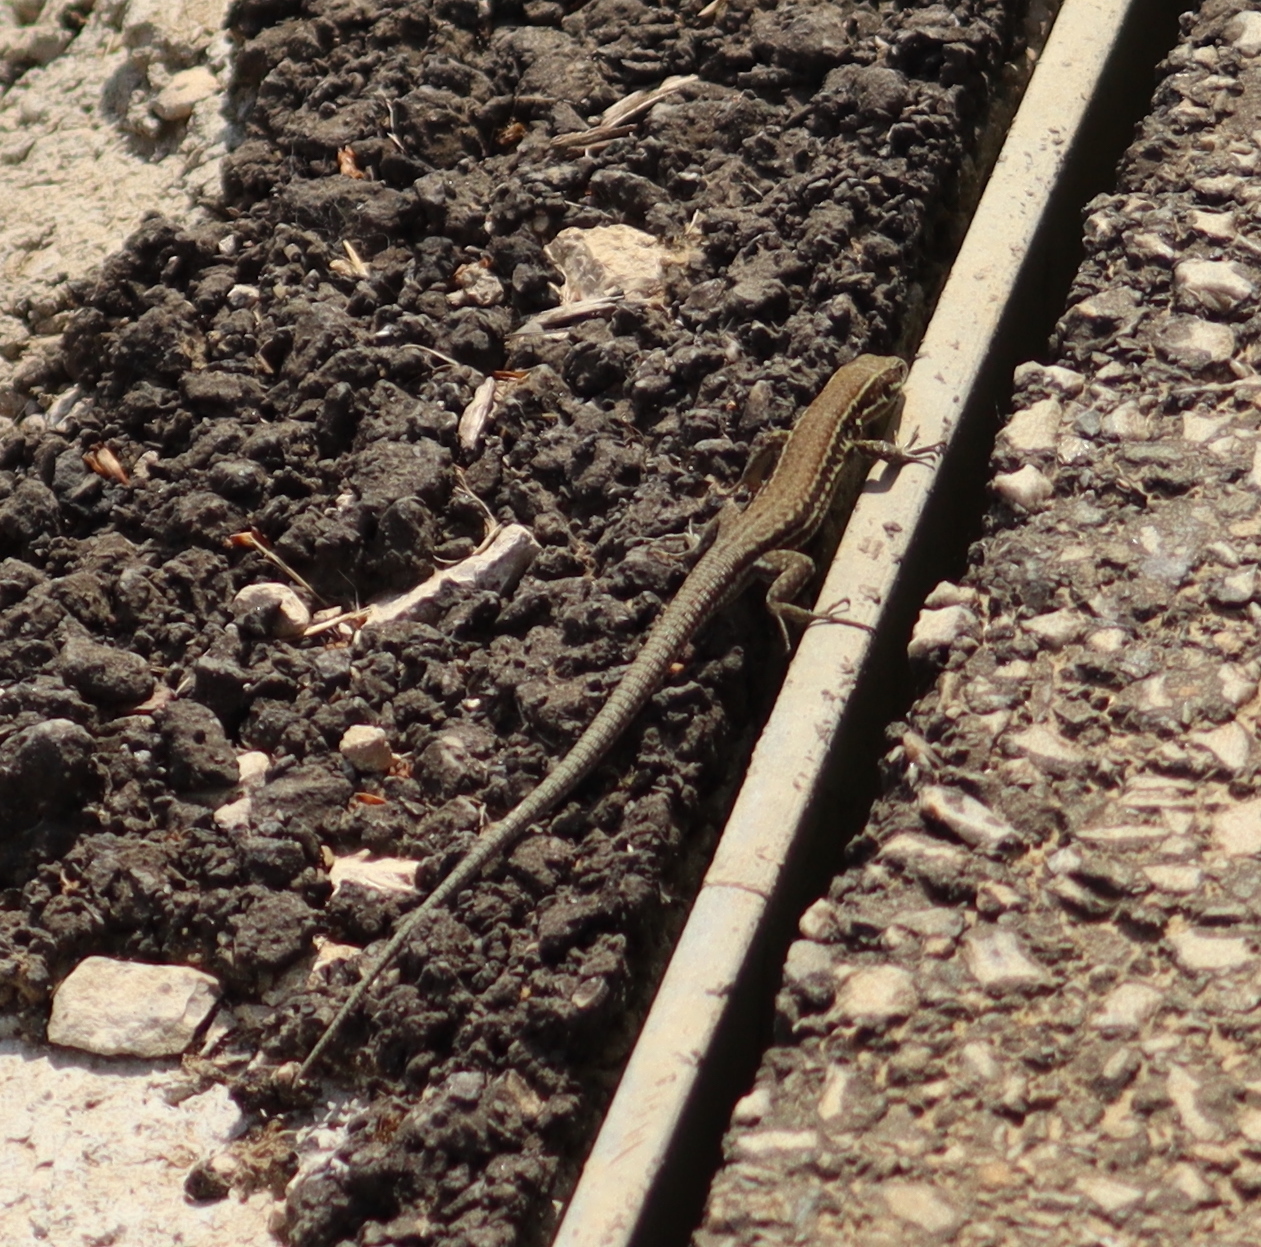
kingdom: Animalia
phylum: Chordata
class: Squamata
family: Lacertidae
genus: Podarcis
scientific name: Podarcis muralis
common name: Common wall lizard
